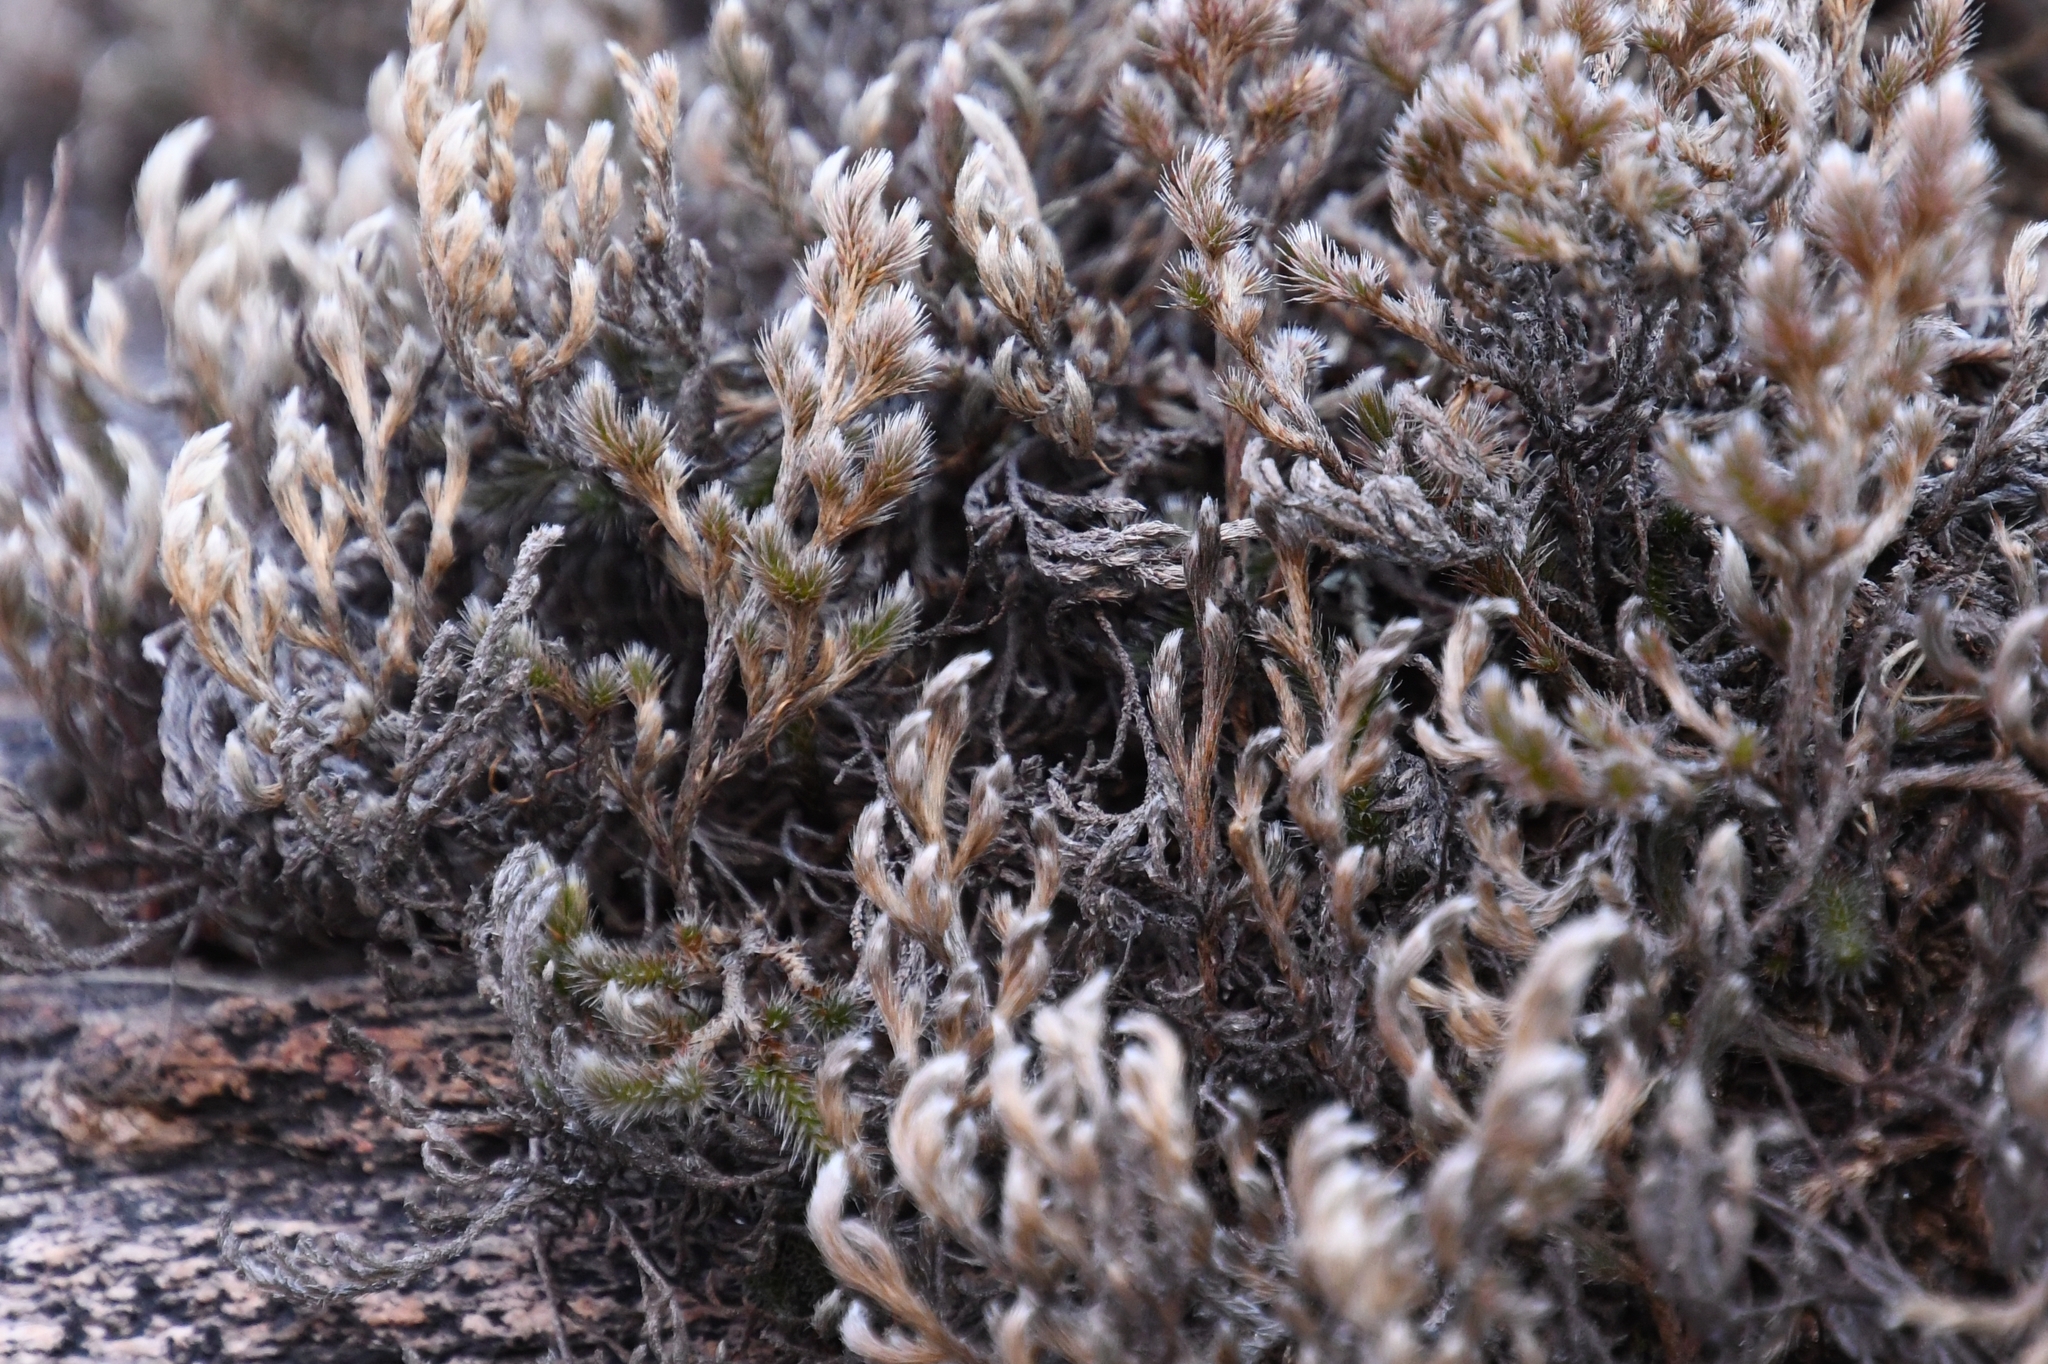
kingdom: Plantae
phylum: Tracheophyta
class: Lycopodiopsida
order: Selaginellales
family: Selaginellaceae
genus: Selaginella
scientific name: Selaginella rupincola
